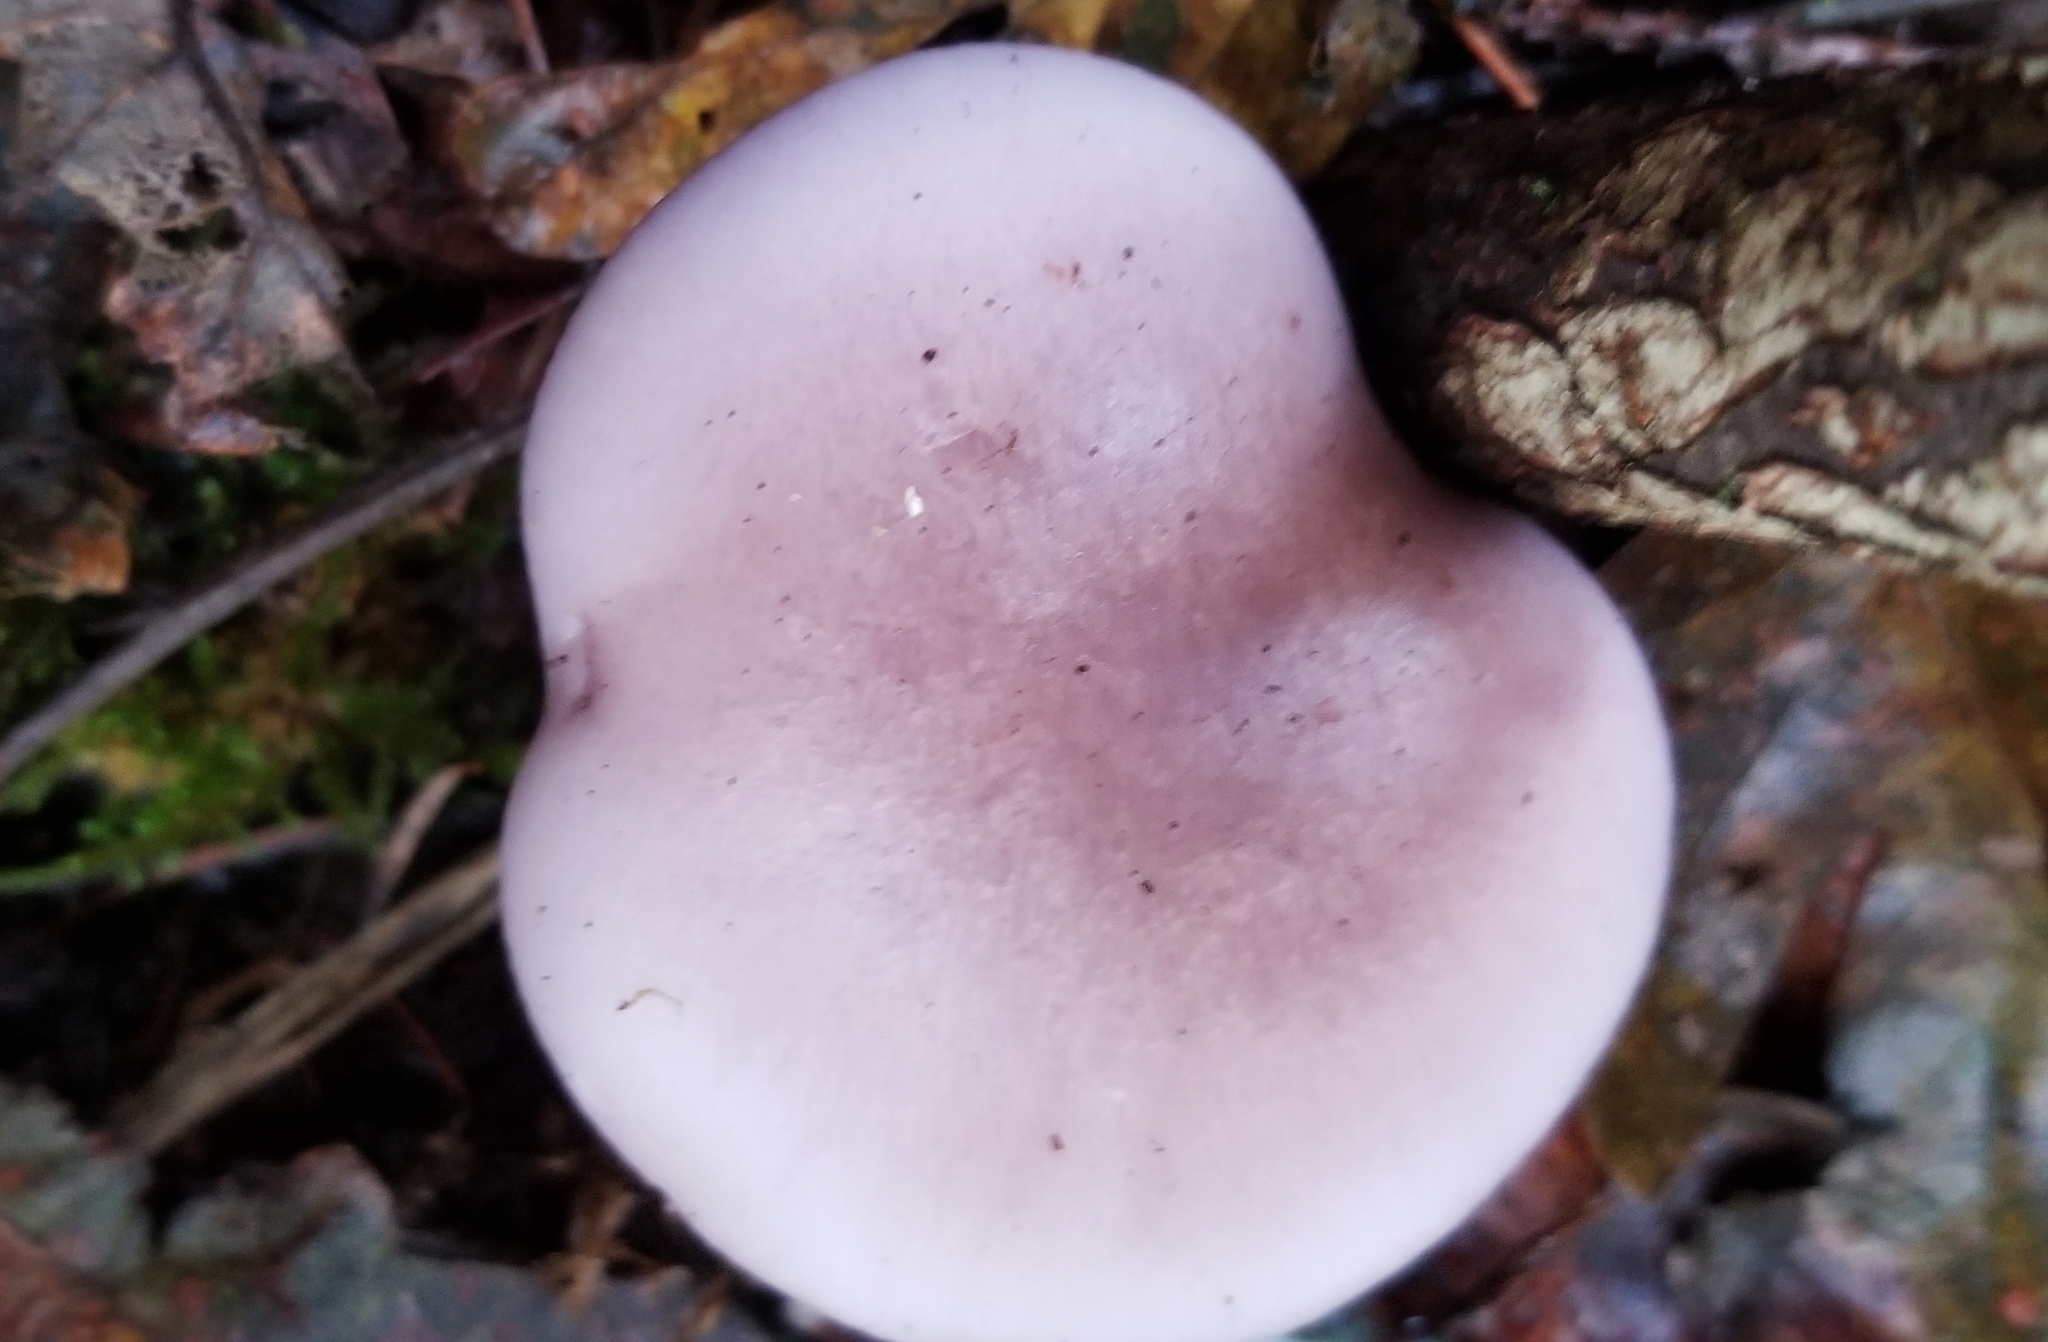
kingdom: Fungi
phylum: Basidiomycota
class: Agaricomycetes
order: Agaricales
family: Tricholomataceae
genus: Collybia
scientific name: Collybia
